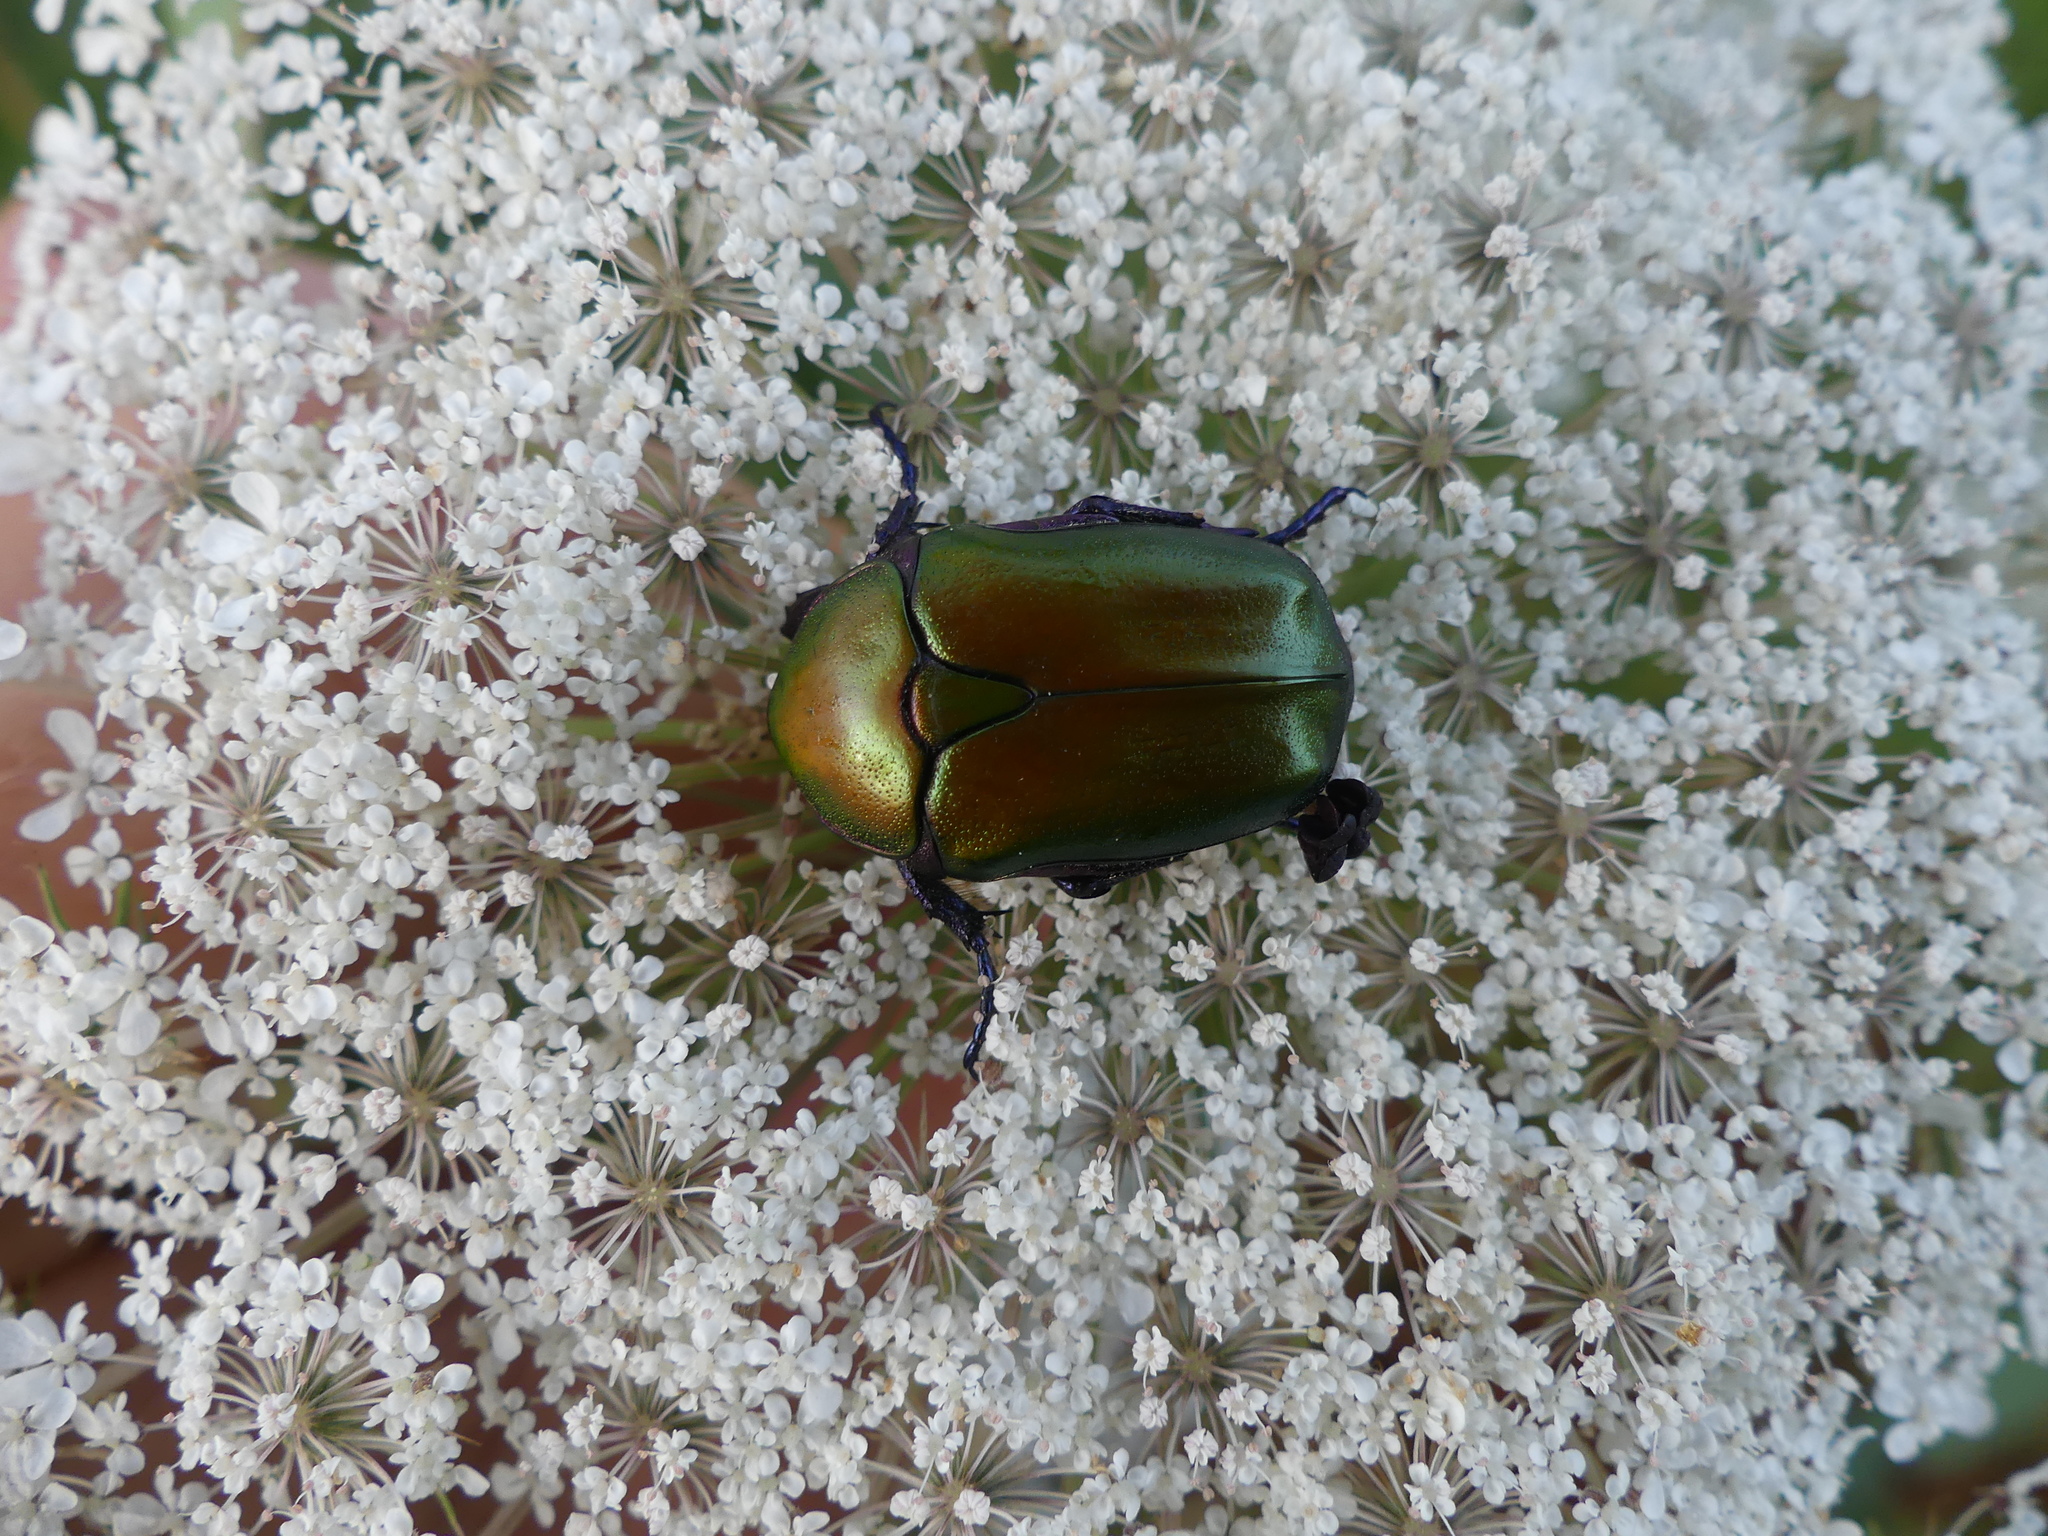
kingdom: Animalia
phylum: Arthropoda
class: Insecta
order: Coleoptera
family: Scarabaeidae
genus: Protaetia
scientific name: Protaetia cuprea
